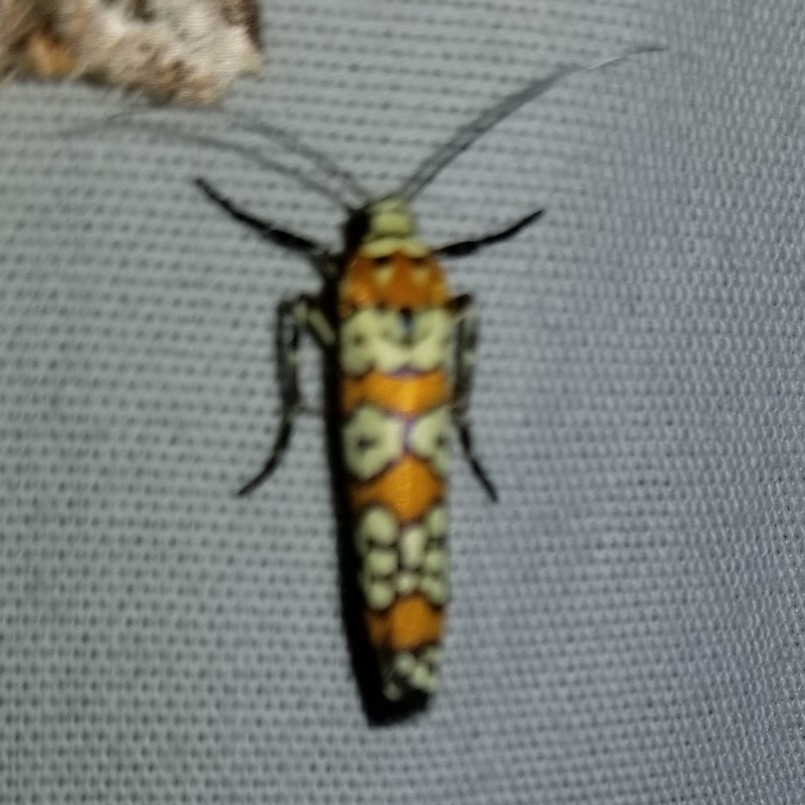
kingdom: Animalia
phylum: Arthropoda
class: Insecta
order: Lepidoptera
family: Attevidae
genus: Atteva
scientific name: Atteva punctella
